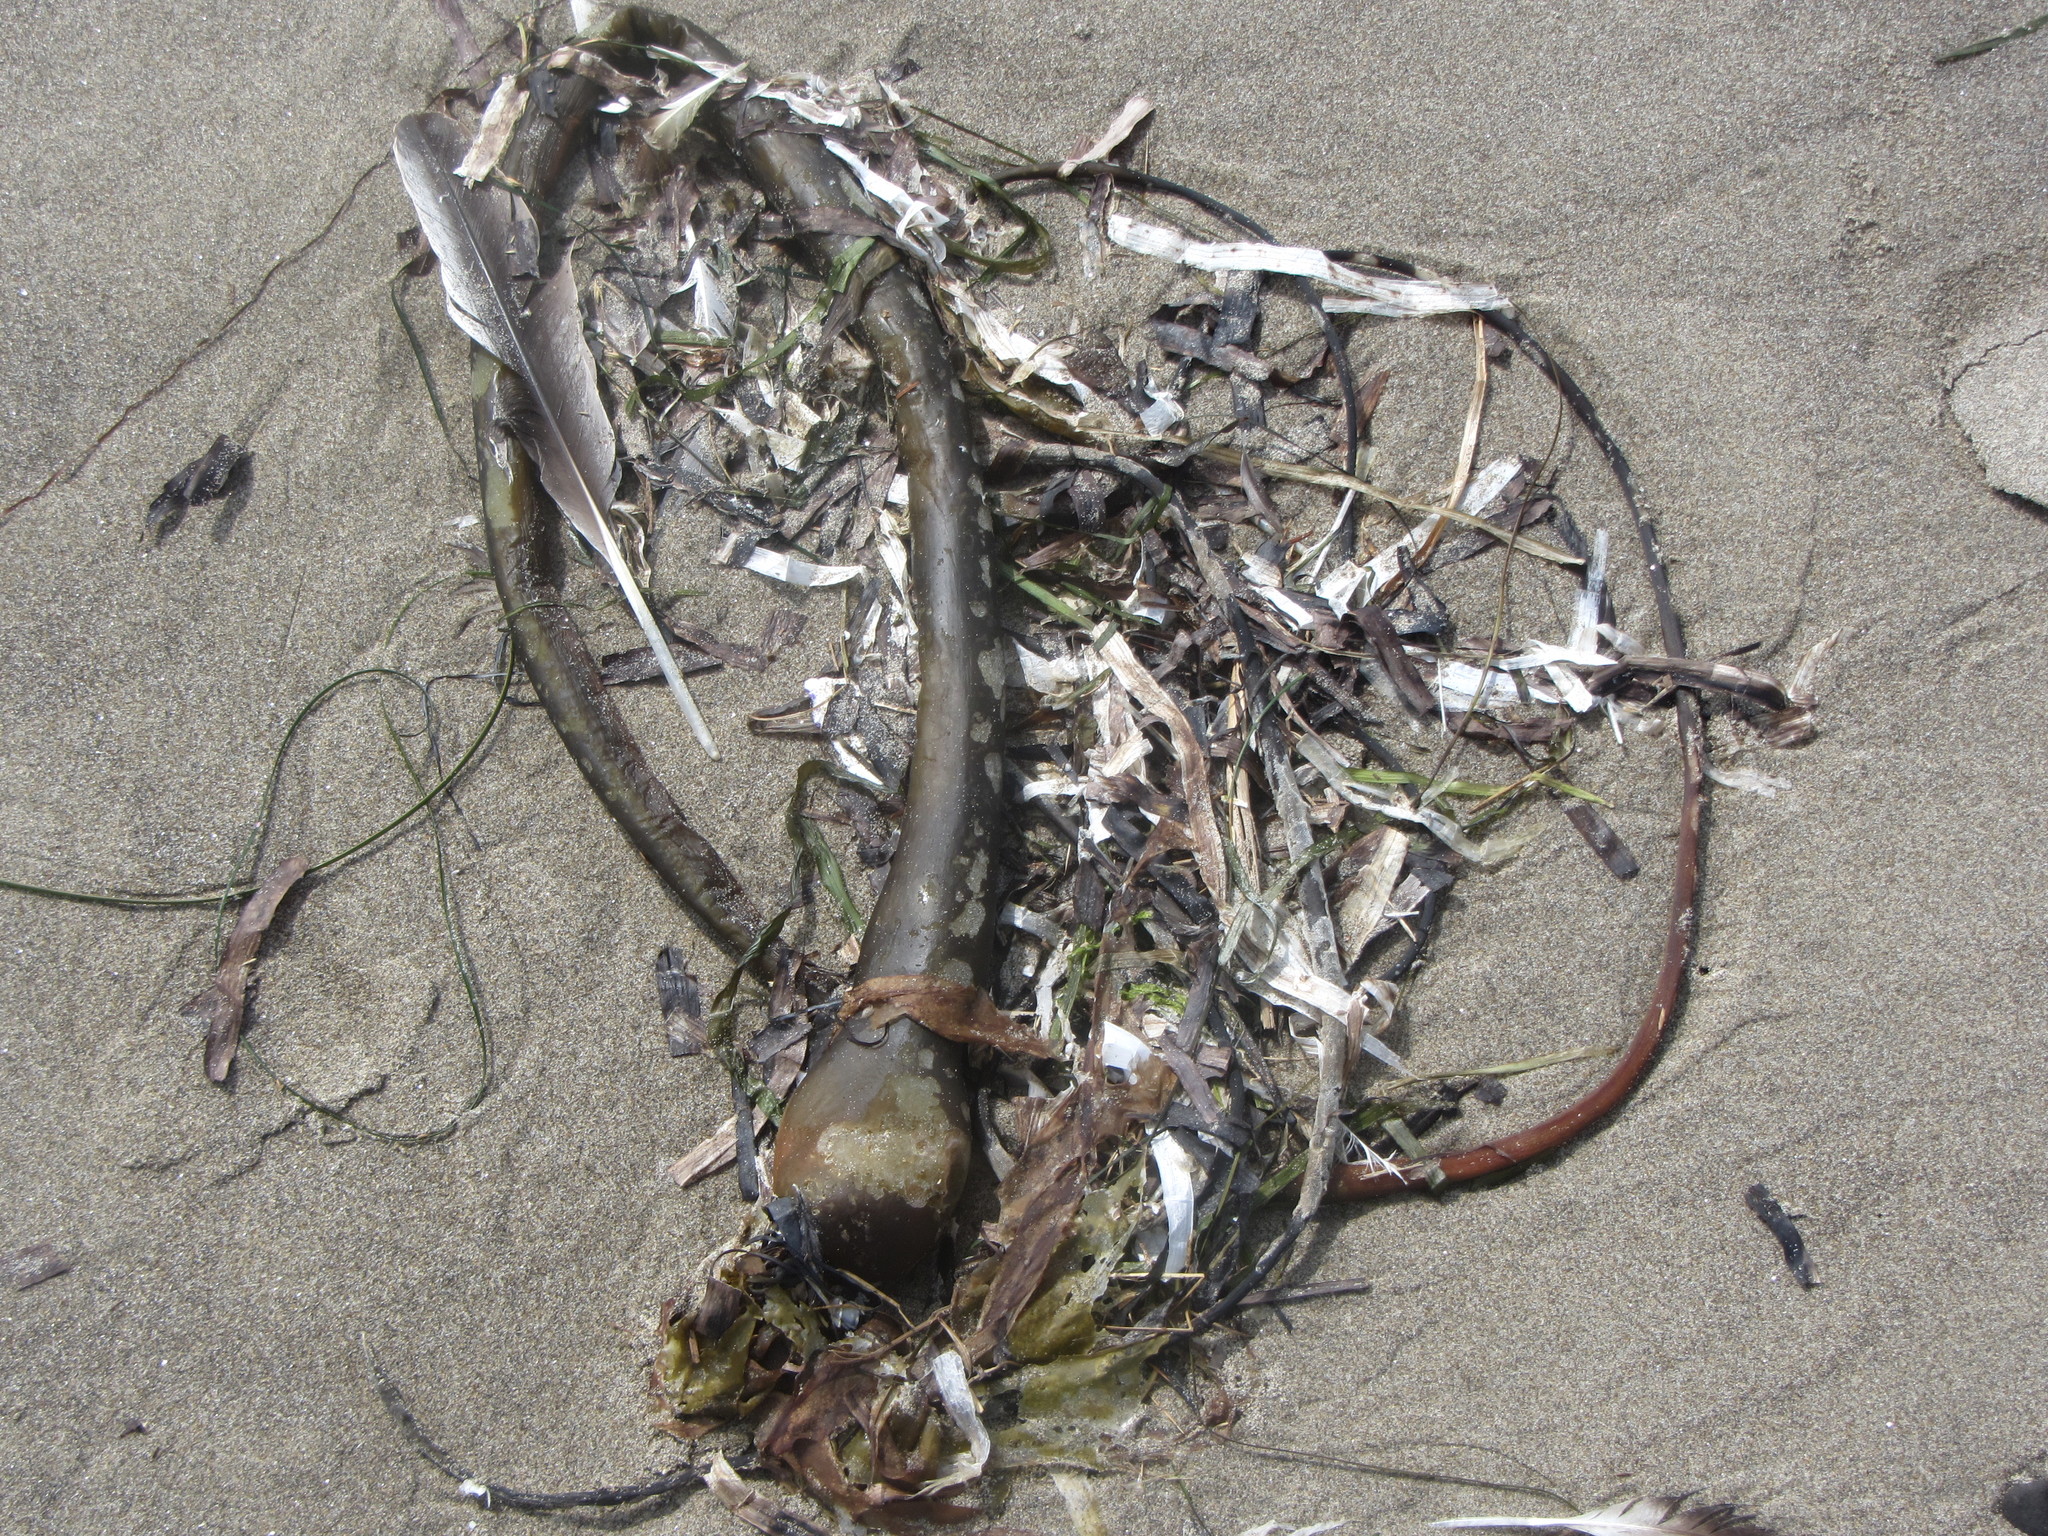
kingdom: Chromista
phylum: Ochrophyta
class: Phaeophyceae
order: Laminariales
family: Laminariaceae
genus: Nereocystis
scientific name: Nereocystis luetkeana
